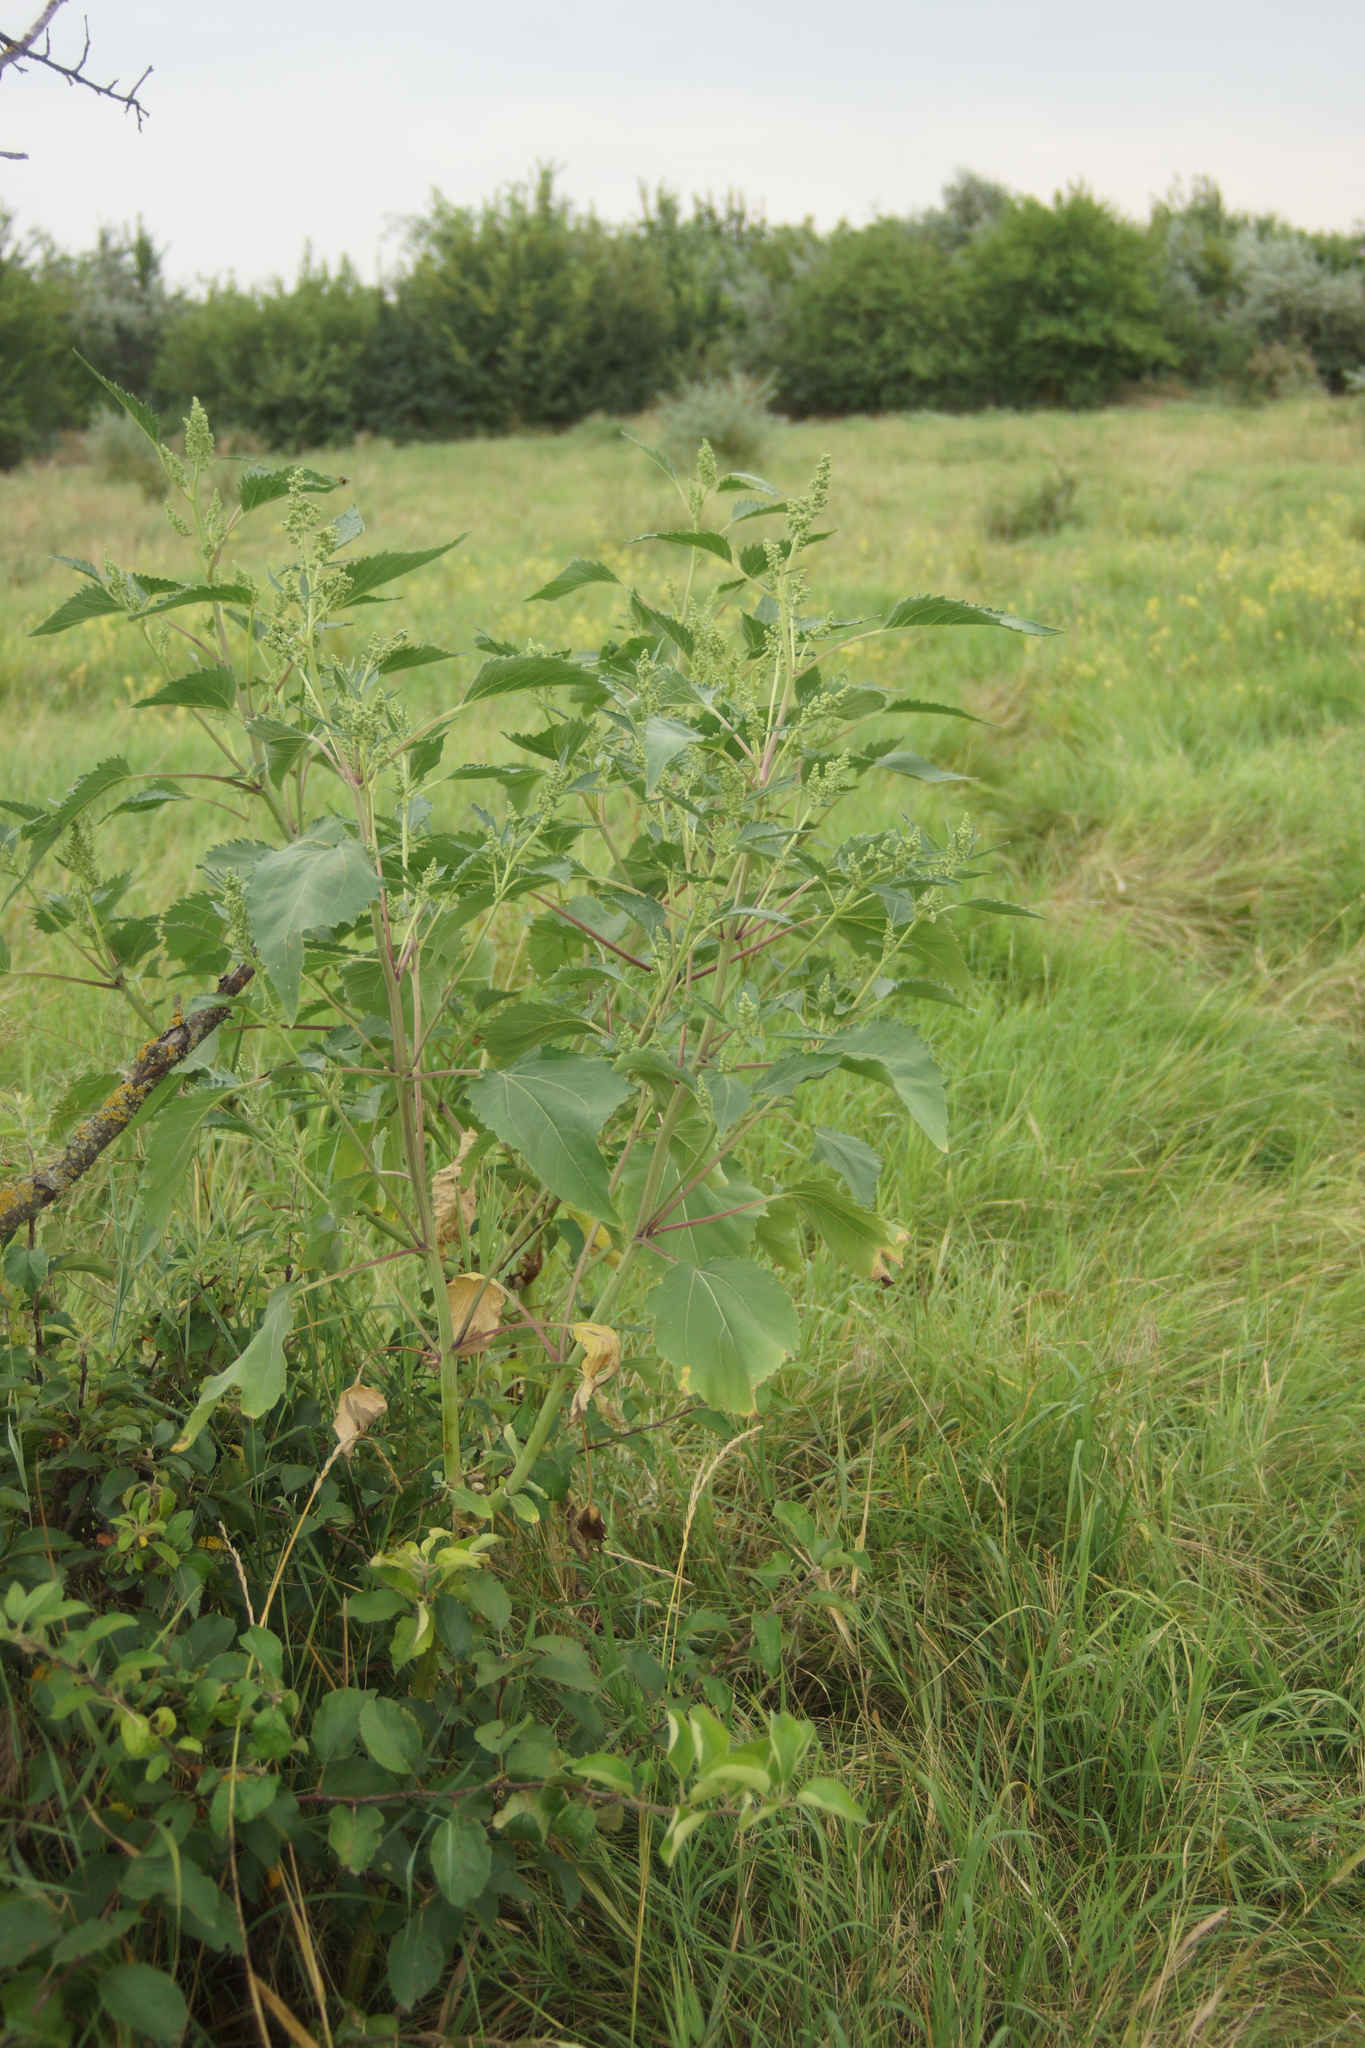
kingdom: Plantae
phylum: Tracheophyta
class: Magnoliopsida
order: Asterales
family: Asteraceae
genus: Cyclachaena
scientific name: Cyclachaena xanthiifolia
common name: Giant sumpweed
